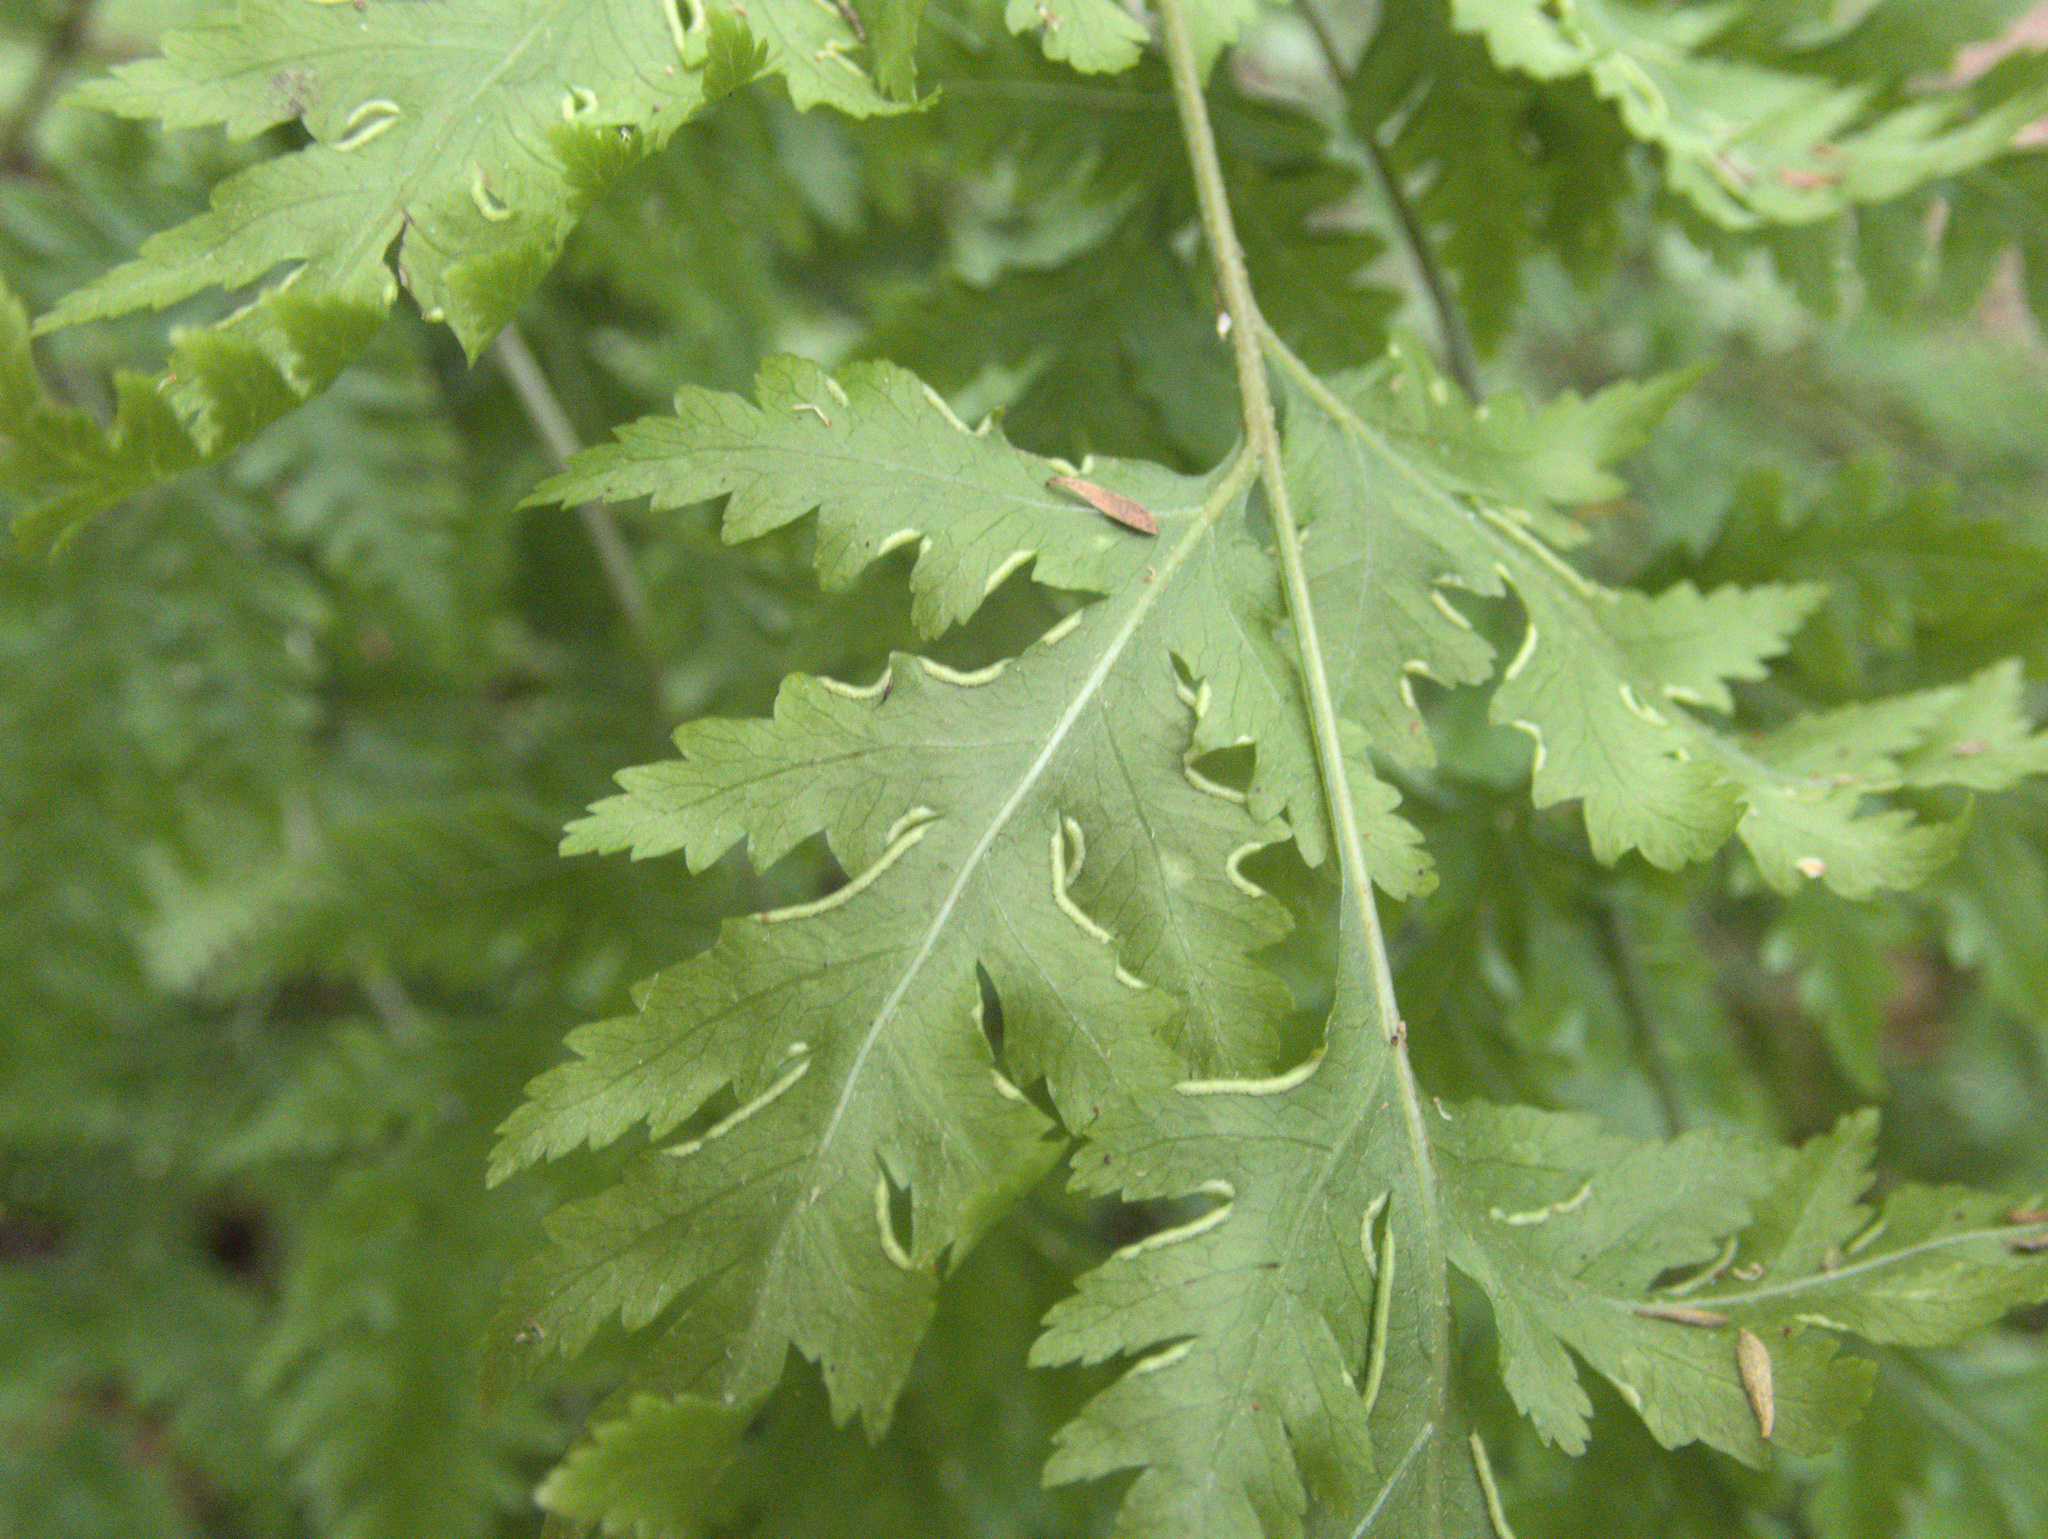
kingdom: Plantae
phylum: Tracheophyta
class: Polypodiopsida
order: Polypodiales
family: Pteridaceae
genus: Pteris
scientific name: Pteris macilenta
